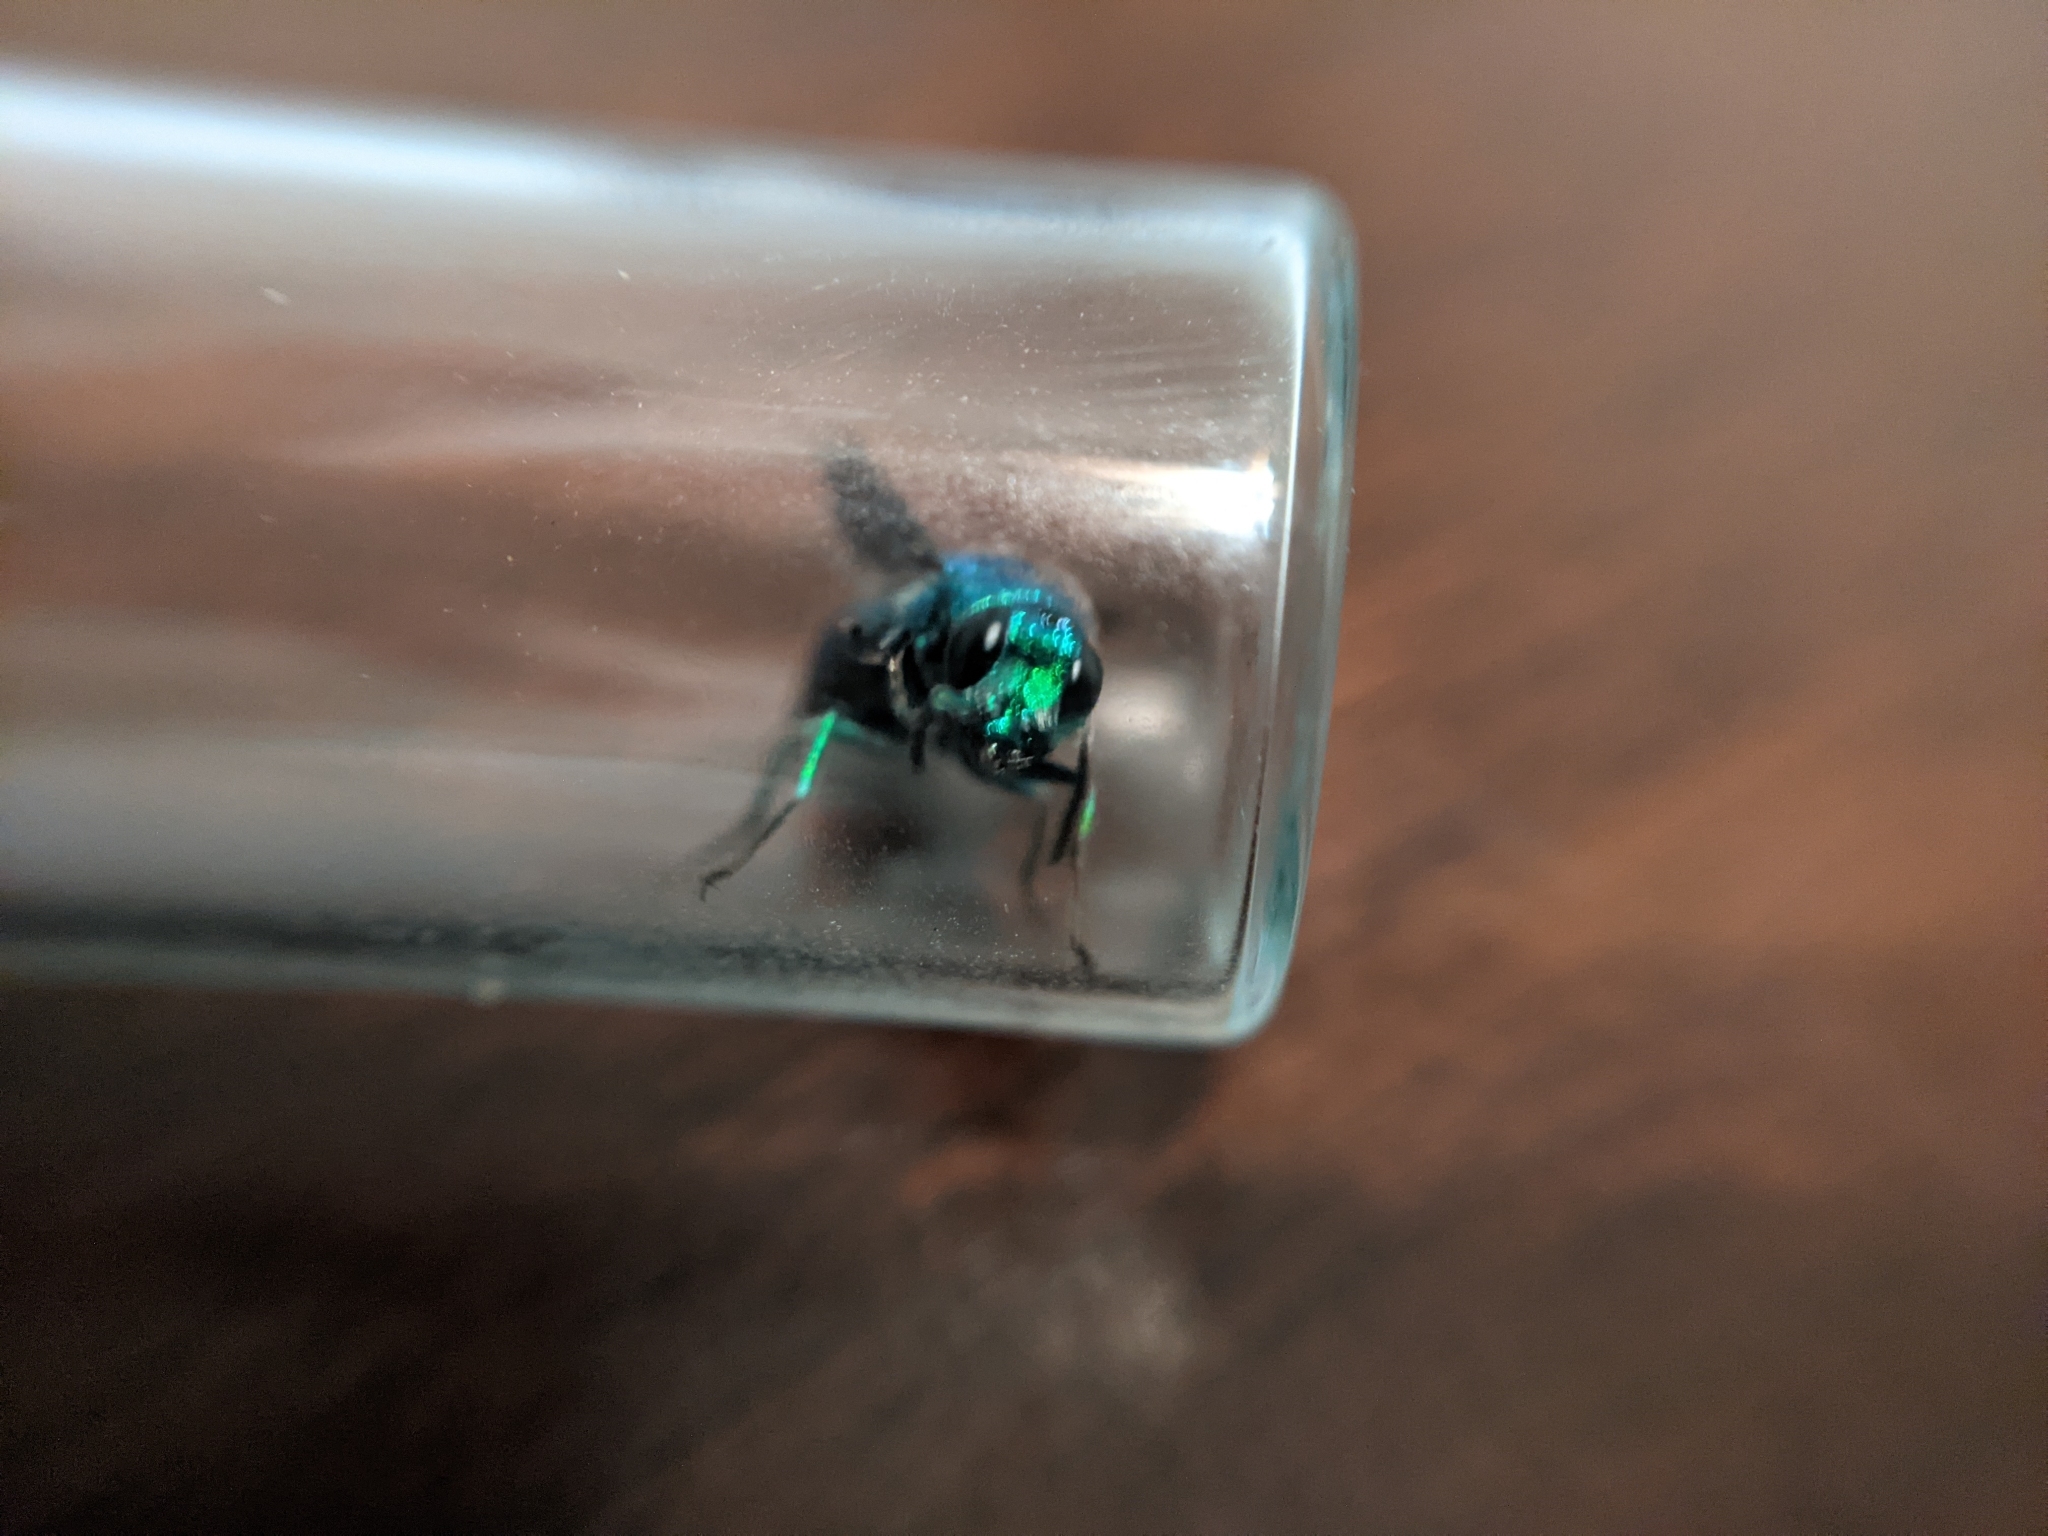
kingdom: Animalia
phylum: Arthropoda
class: Insecta
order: Hymenoptera
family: Chrysididae
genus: Chrysis
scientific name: Chrysis angolensis
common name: Cuckoo wasp
